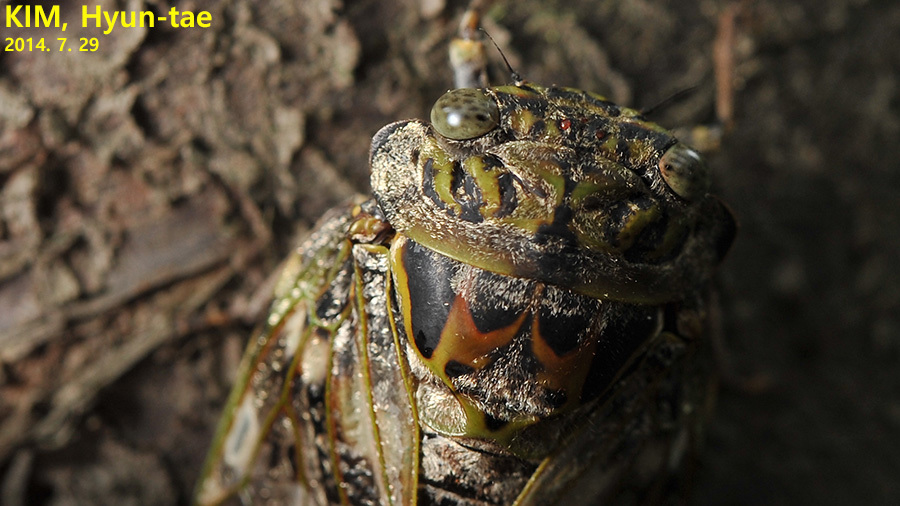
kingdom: Animalia
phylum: Arthropoda
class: Insecta
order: Hemiptera
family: Cicadidae
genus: Platypleura
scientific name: Platypleura kaempferi
